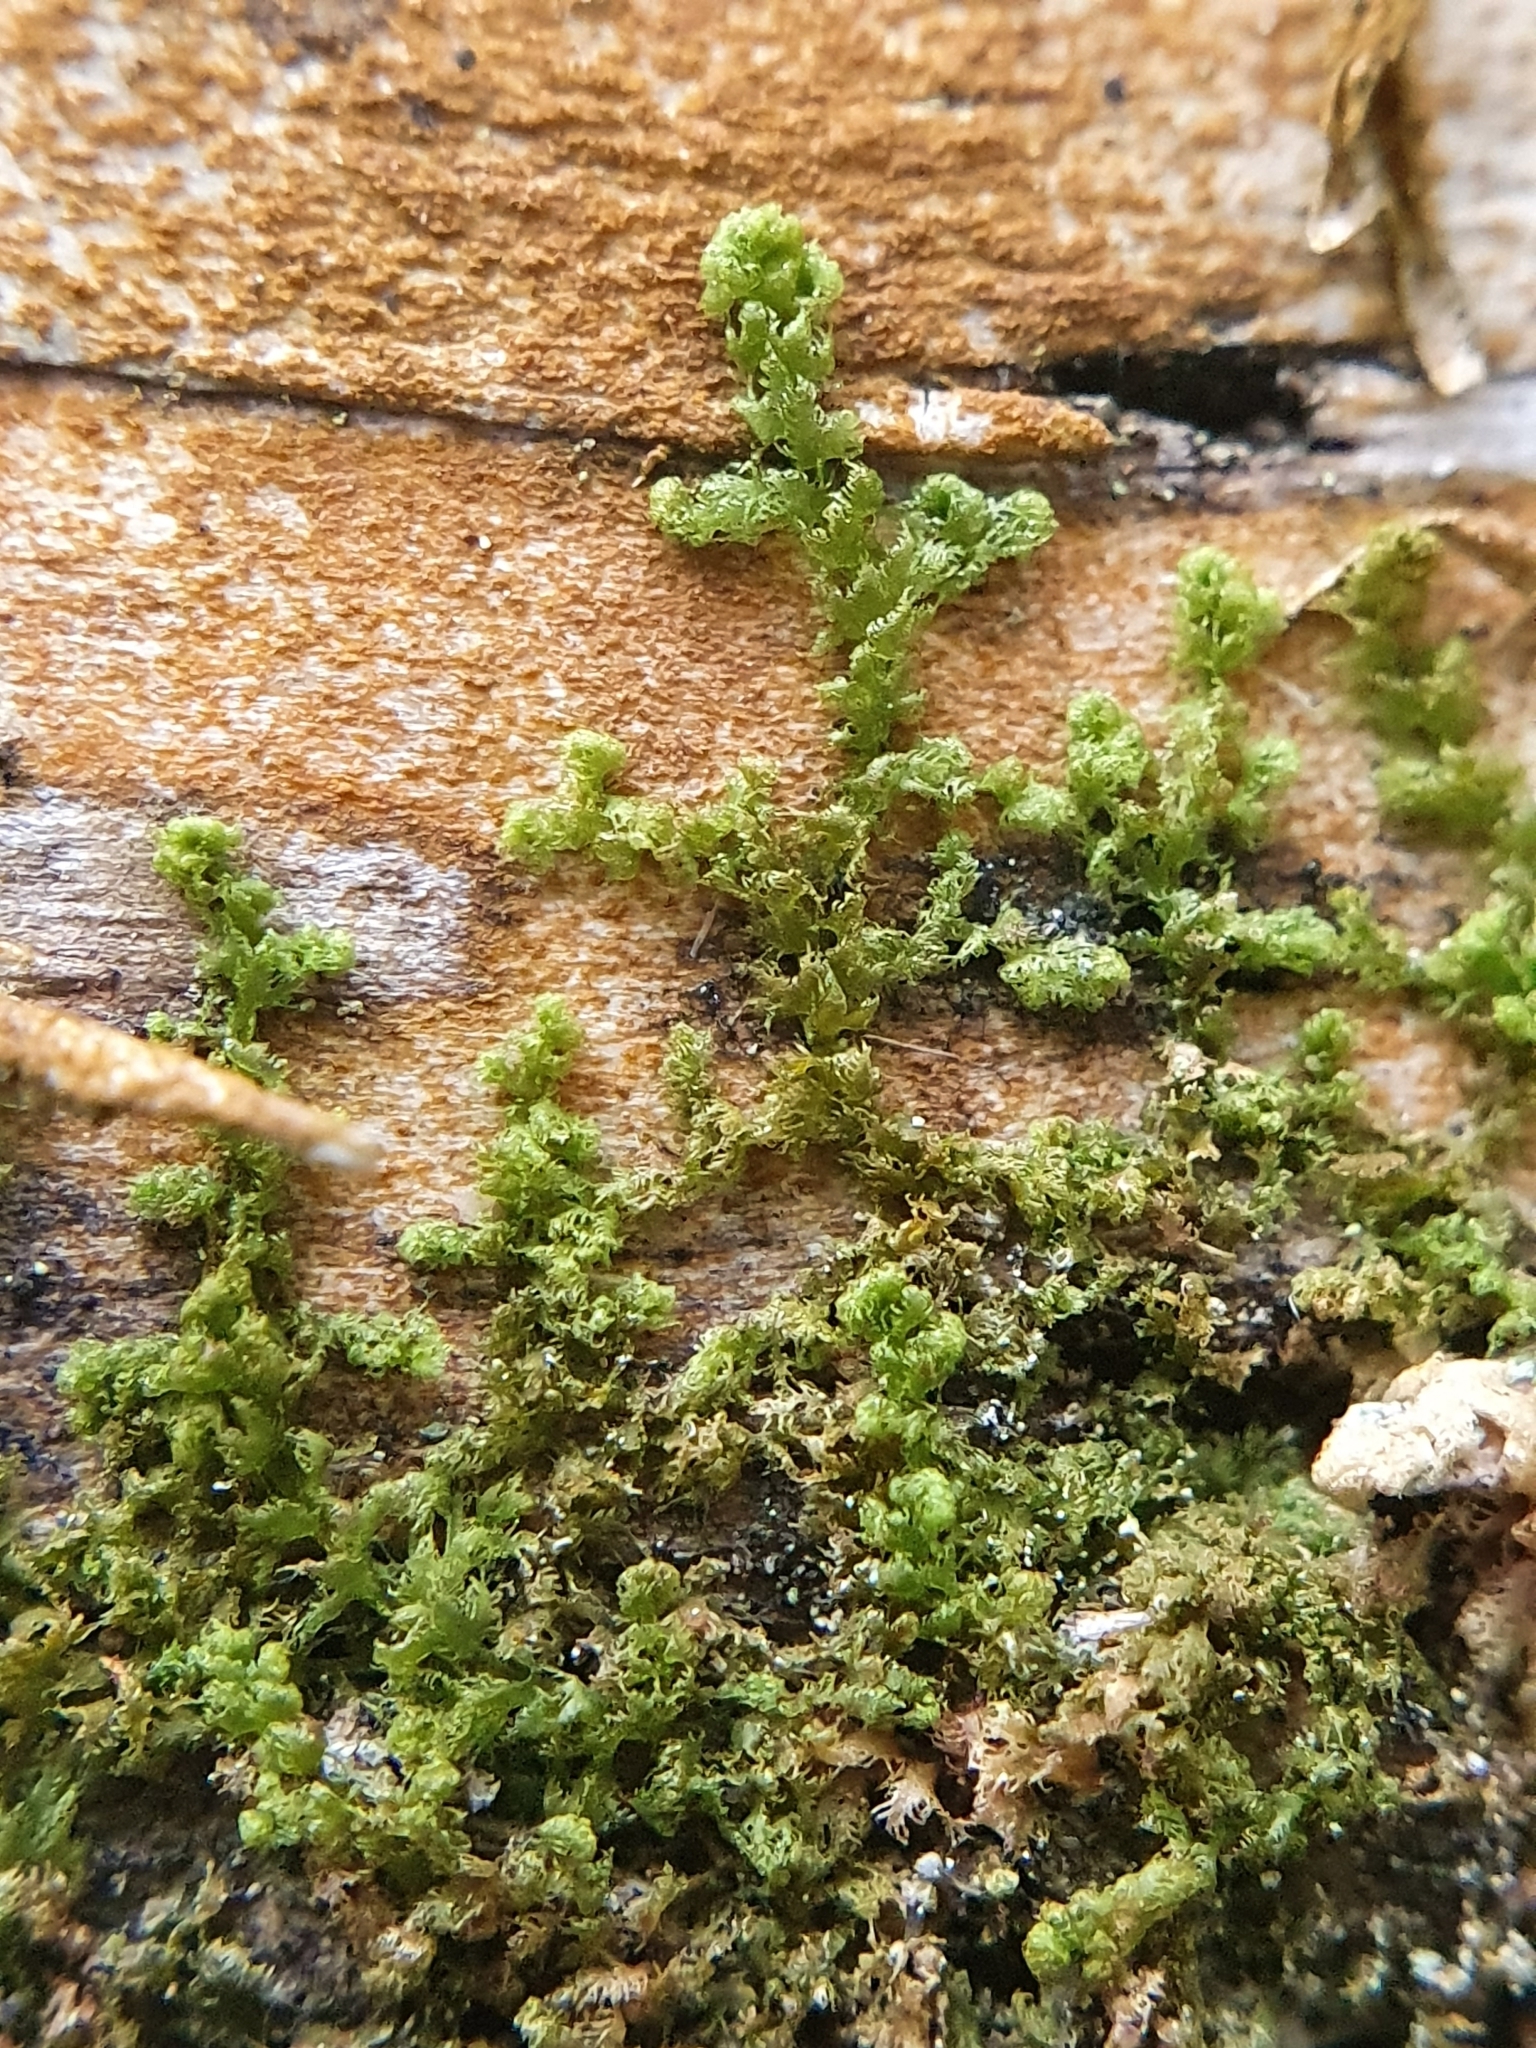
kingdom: Plantae
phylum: Marchantiophyta
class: Jungermanniopsida
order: Ptilidiales
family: Ptilidiaceae
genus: Ptilidium
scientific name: Ptilidium pulcherrimum
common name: Tree fringewort
